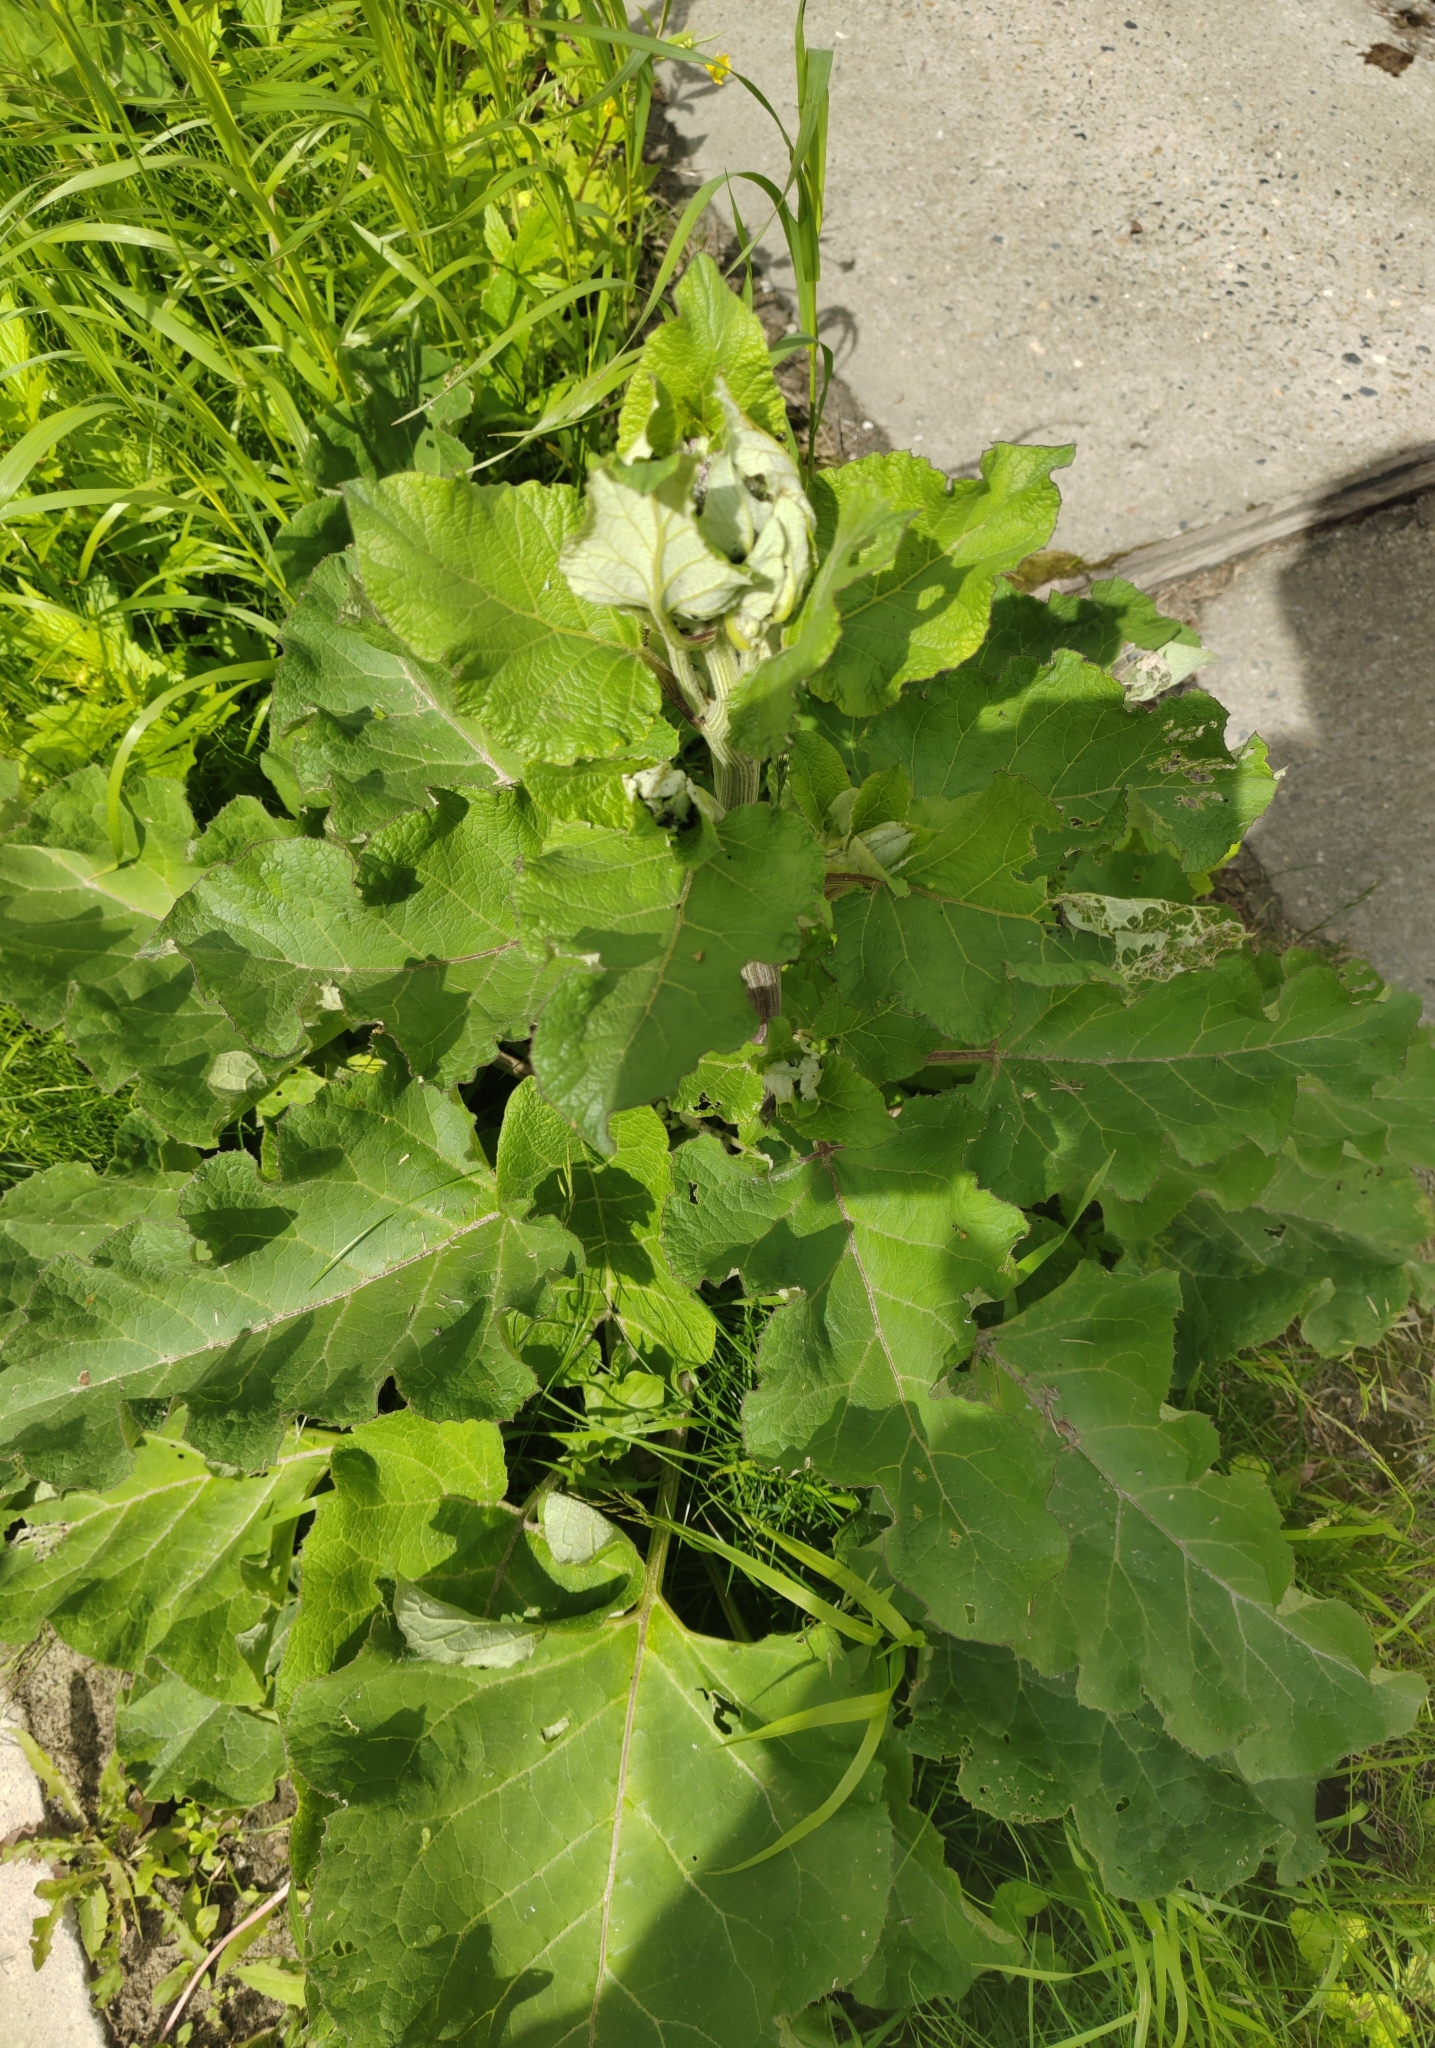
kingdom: Plantae
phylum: Tracheophyta
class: Magnoliopsida
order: Asterales
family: Asteraceae
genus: Arctium
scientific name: Arctium tomentosum
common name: Woolly burdock
